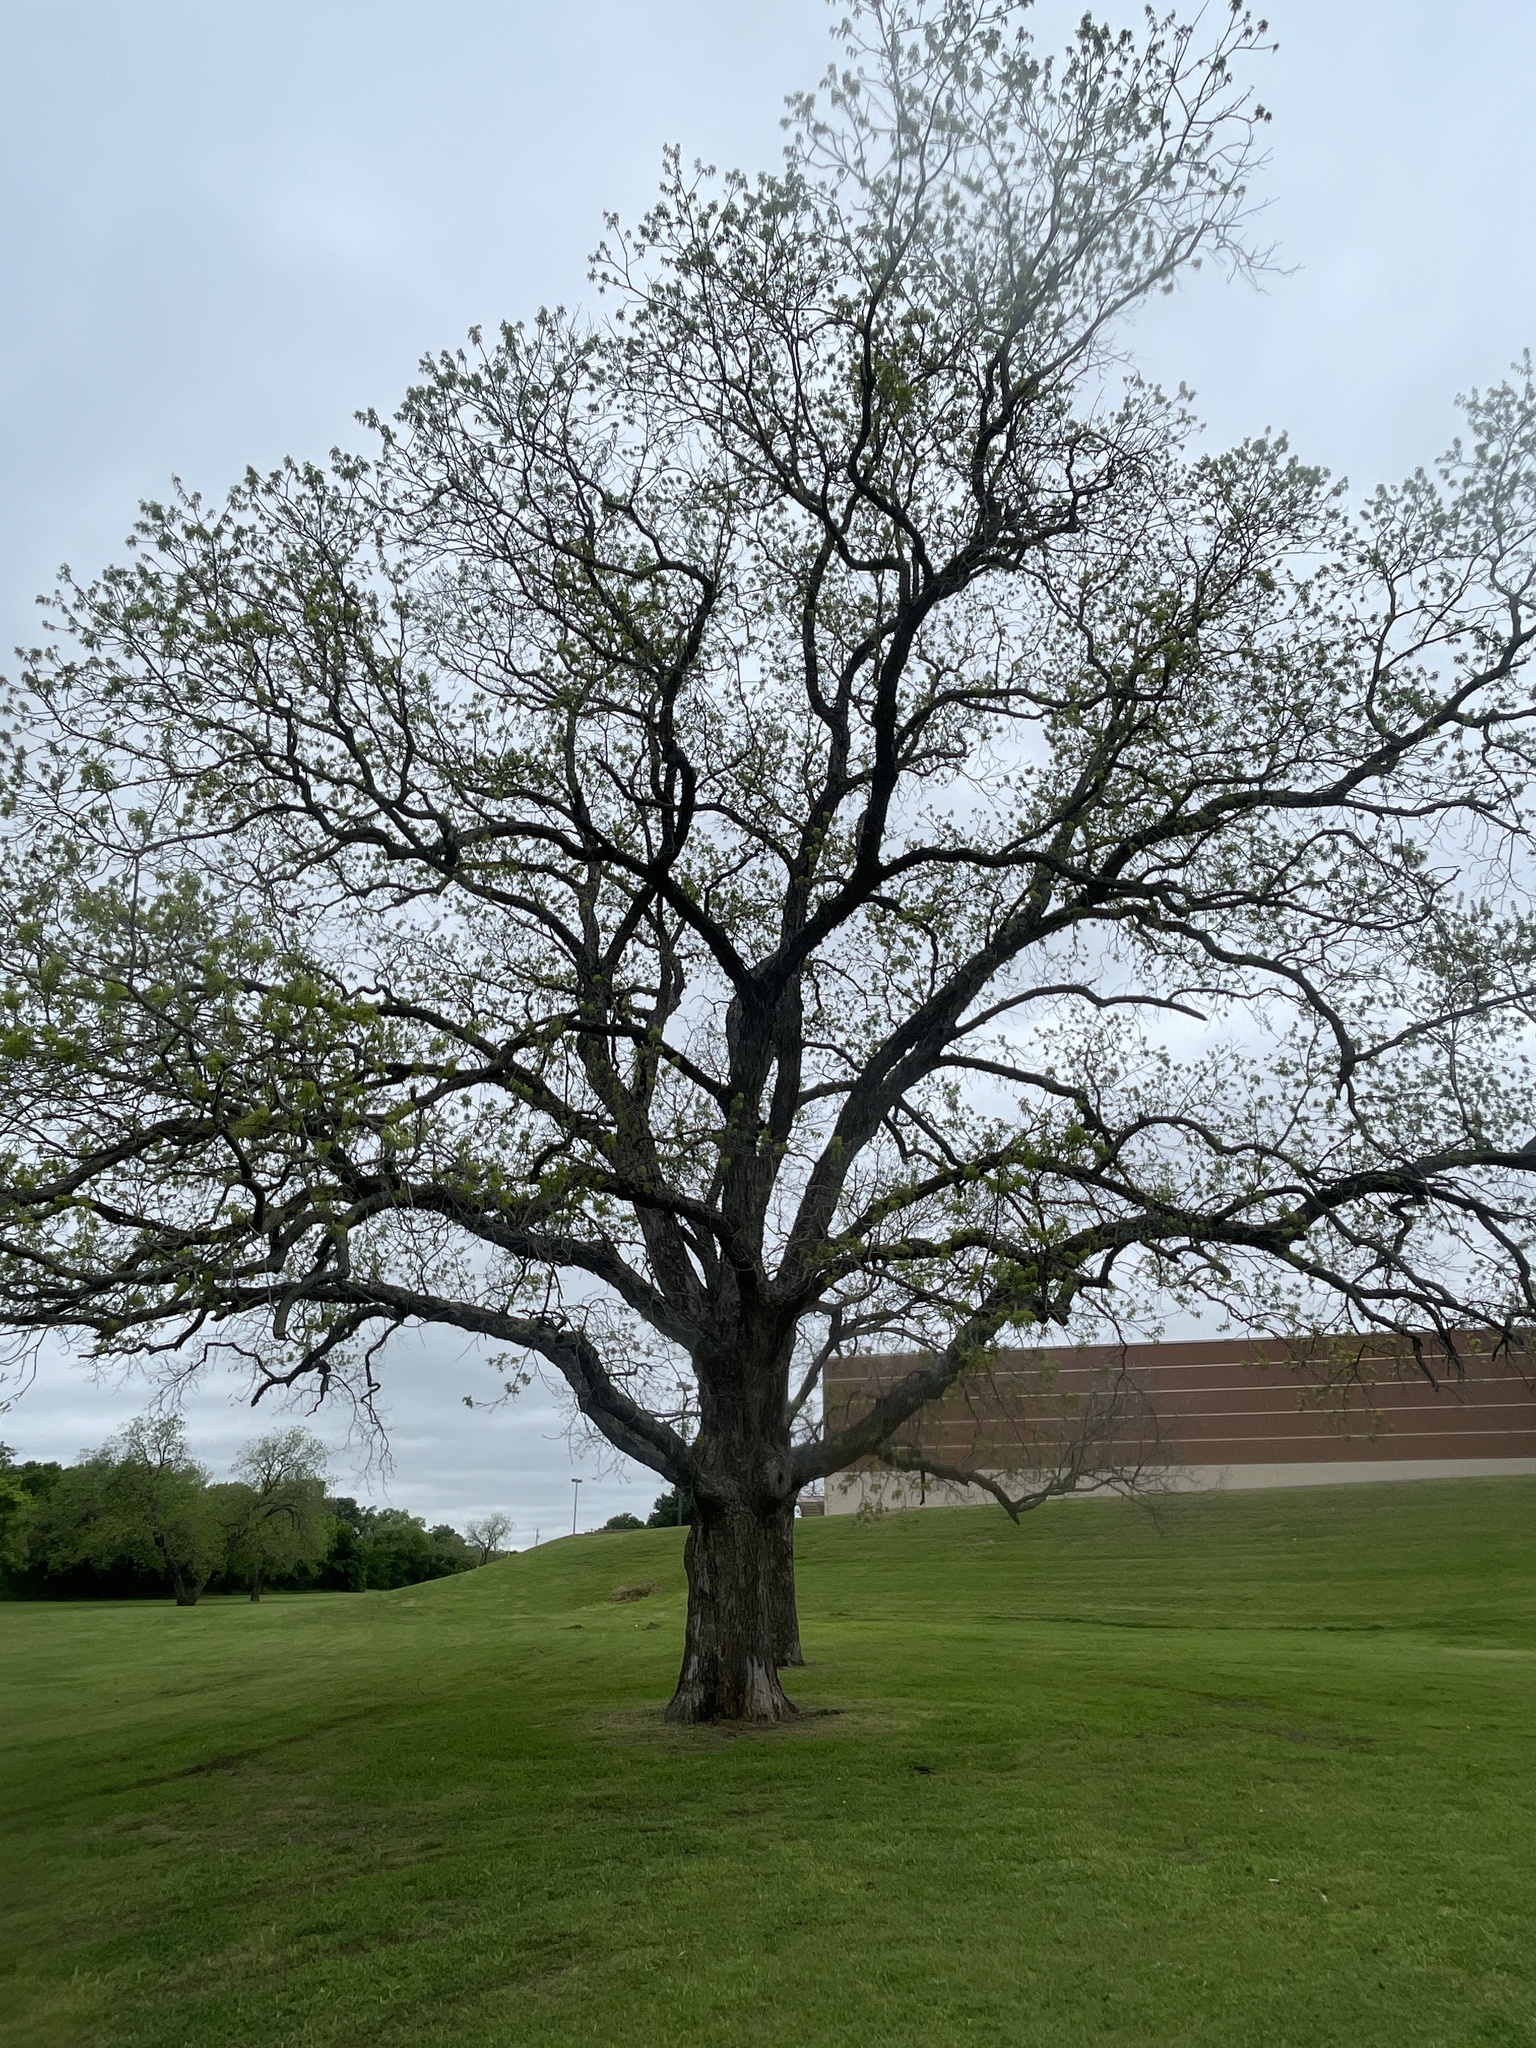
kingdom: Plantae
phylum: Tracheophyta
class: Magnoliopsida
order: Fagales
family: Juglandaceae
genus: Carya
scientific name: Carya illinoinensis
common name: Pecan
